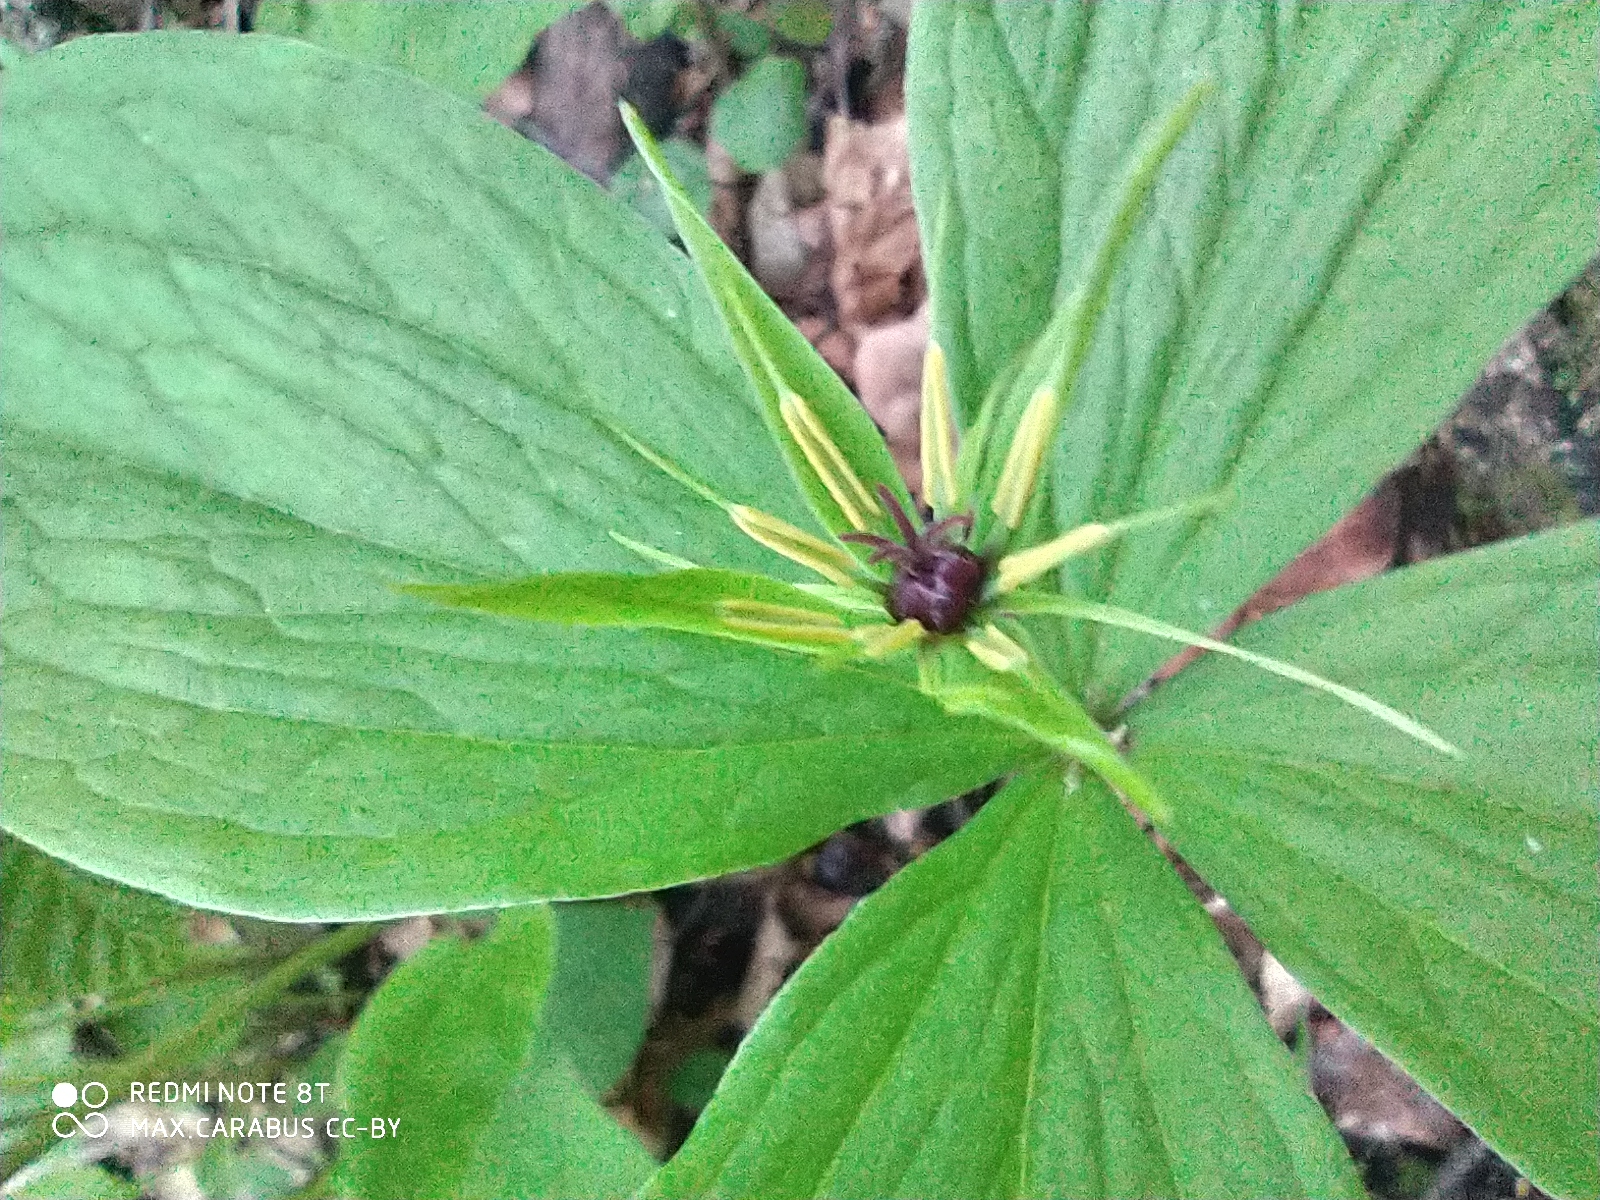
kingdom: Plantae
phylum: Tracheophyta
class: Liliopsida
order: Liliales
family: Melanthiaceae
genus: Paris
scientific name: Paris quadrifolia
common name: Herb-paris
